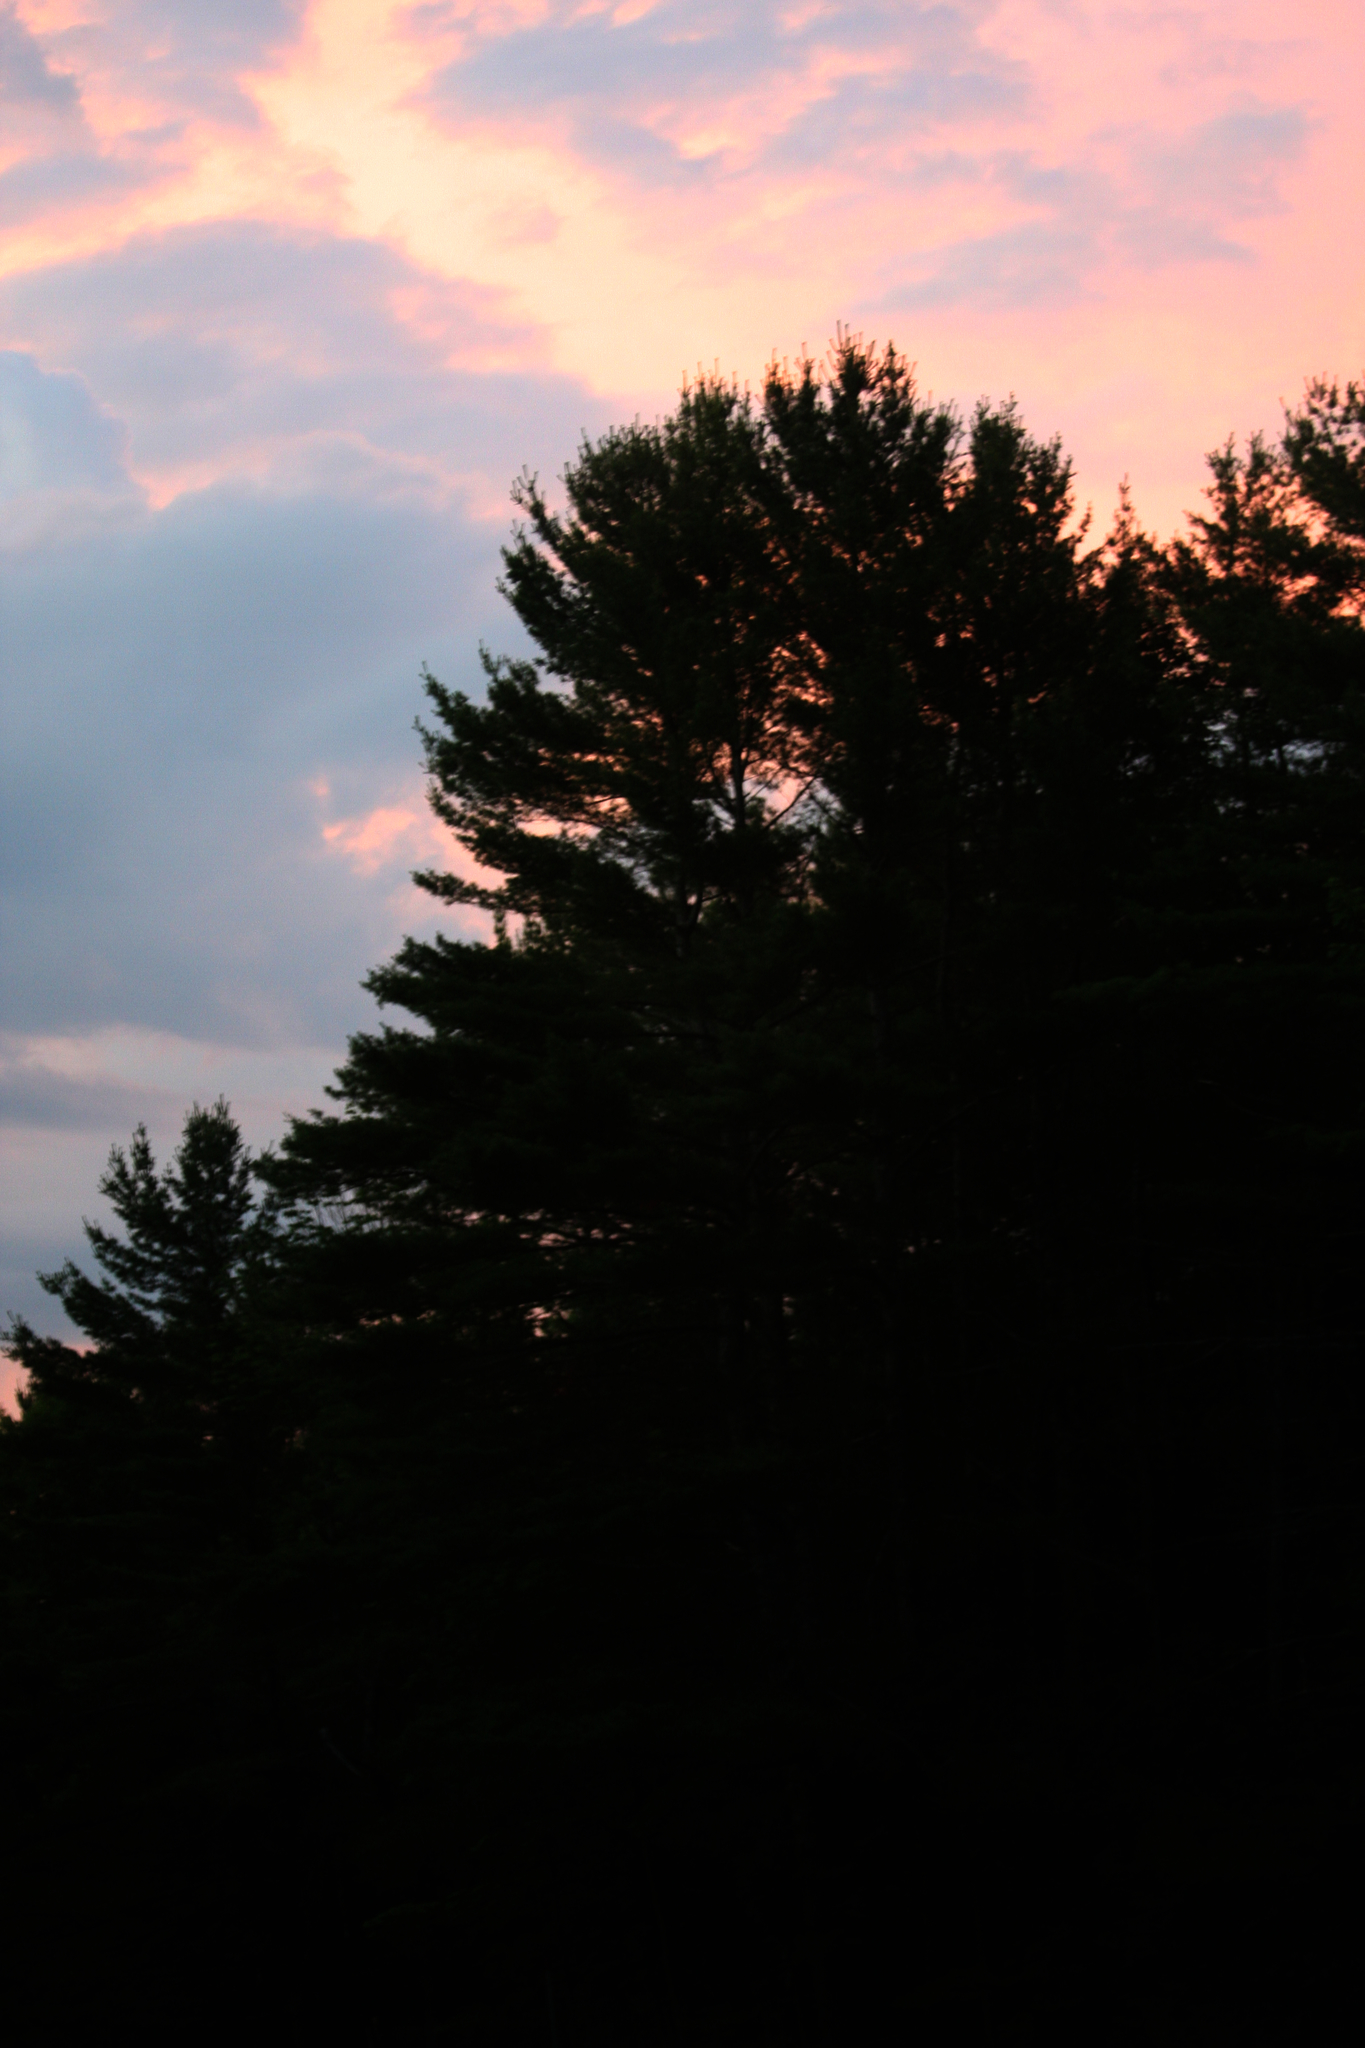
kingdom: Plantae
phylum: Tracheophyta
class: Pinopsida
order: Pinales
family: Pinaceae
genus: Pinus
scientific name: Pinus strobus
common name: Weymouth pine
